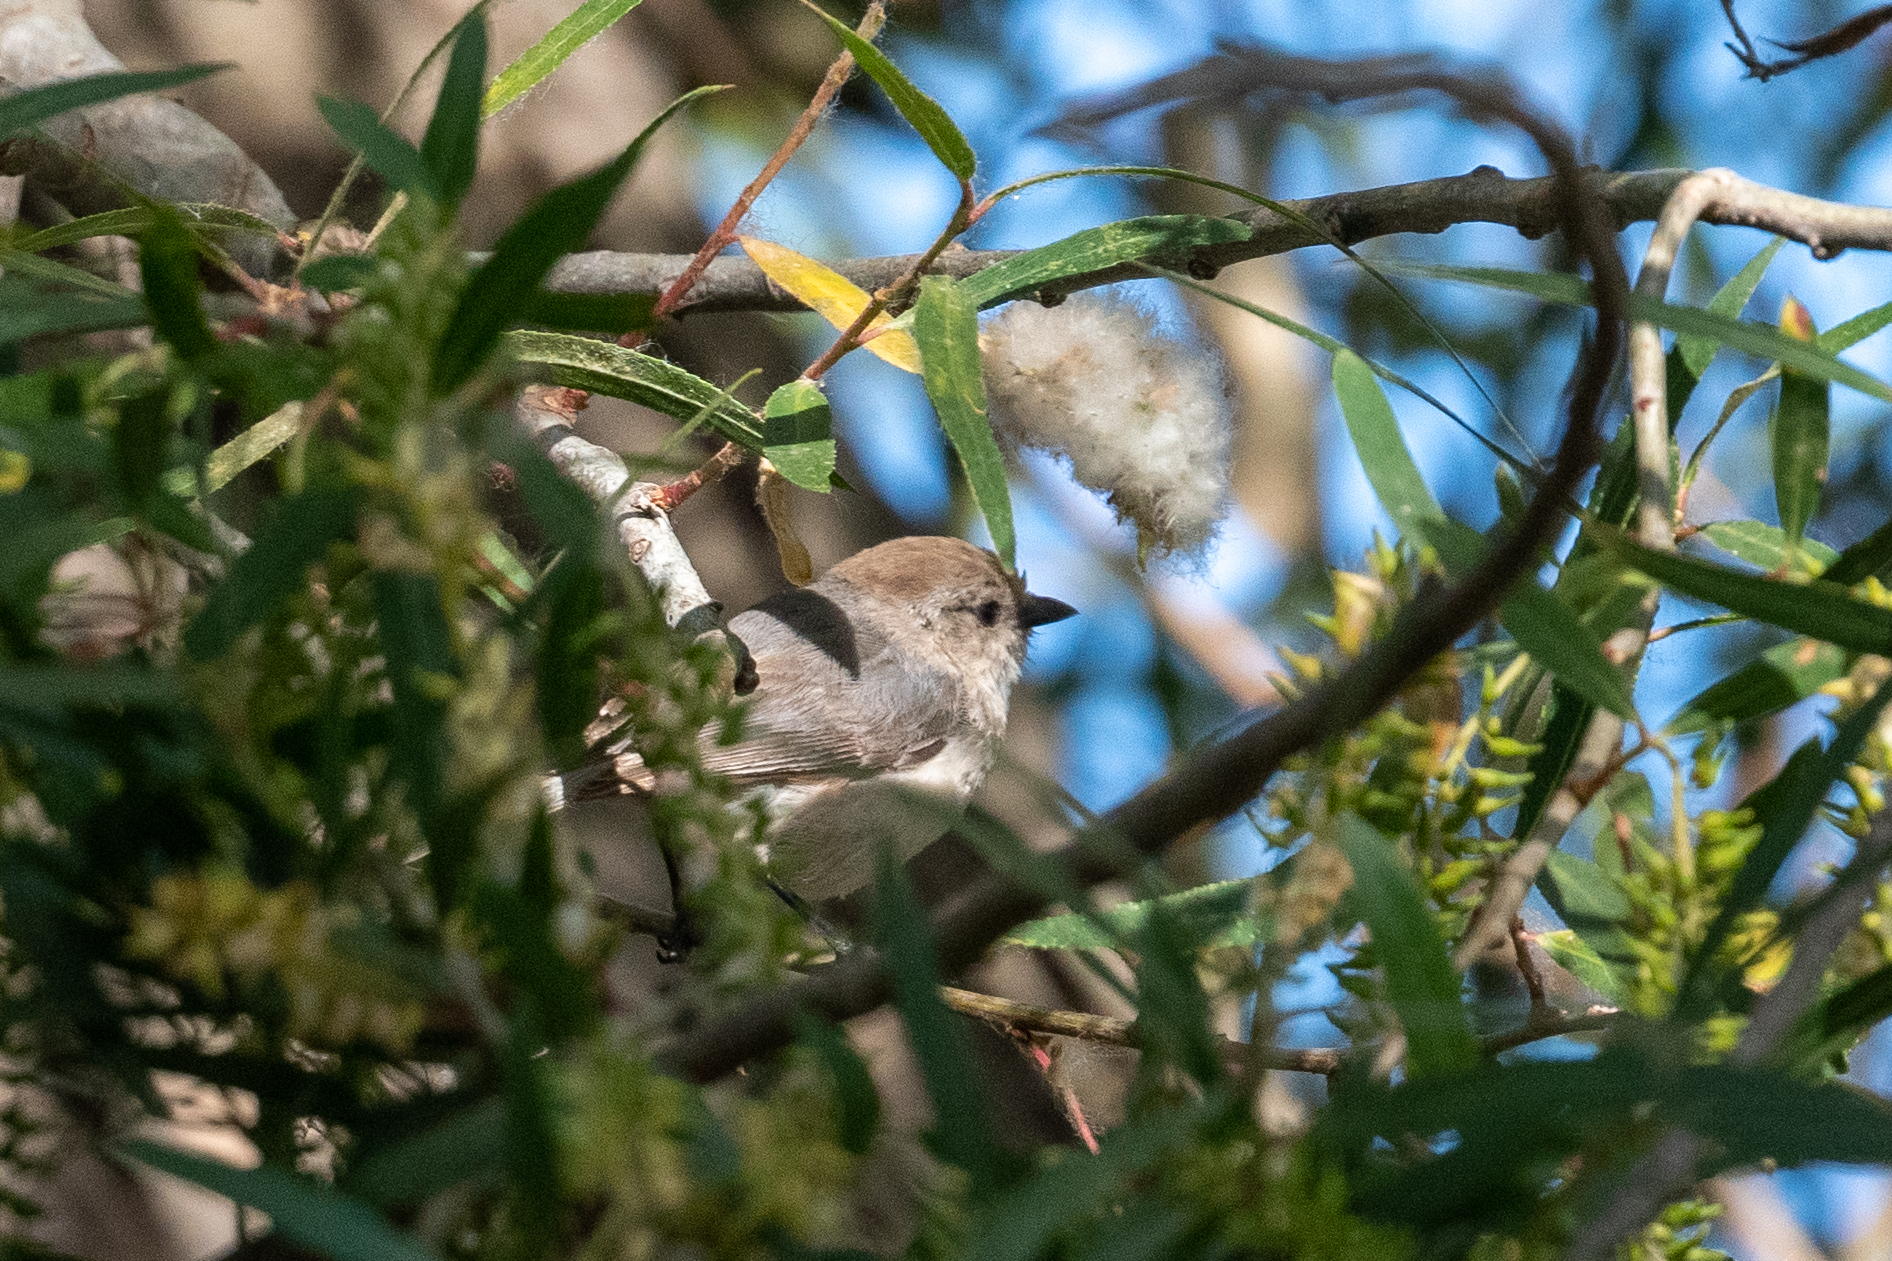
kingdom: Animalia
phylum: Chordata
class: Aves
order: Passeriformes
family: Aegithalidae
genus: Psaltriparus
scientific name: Psaltriparus minimus
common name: American bushtit
